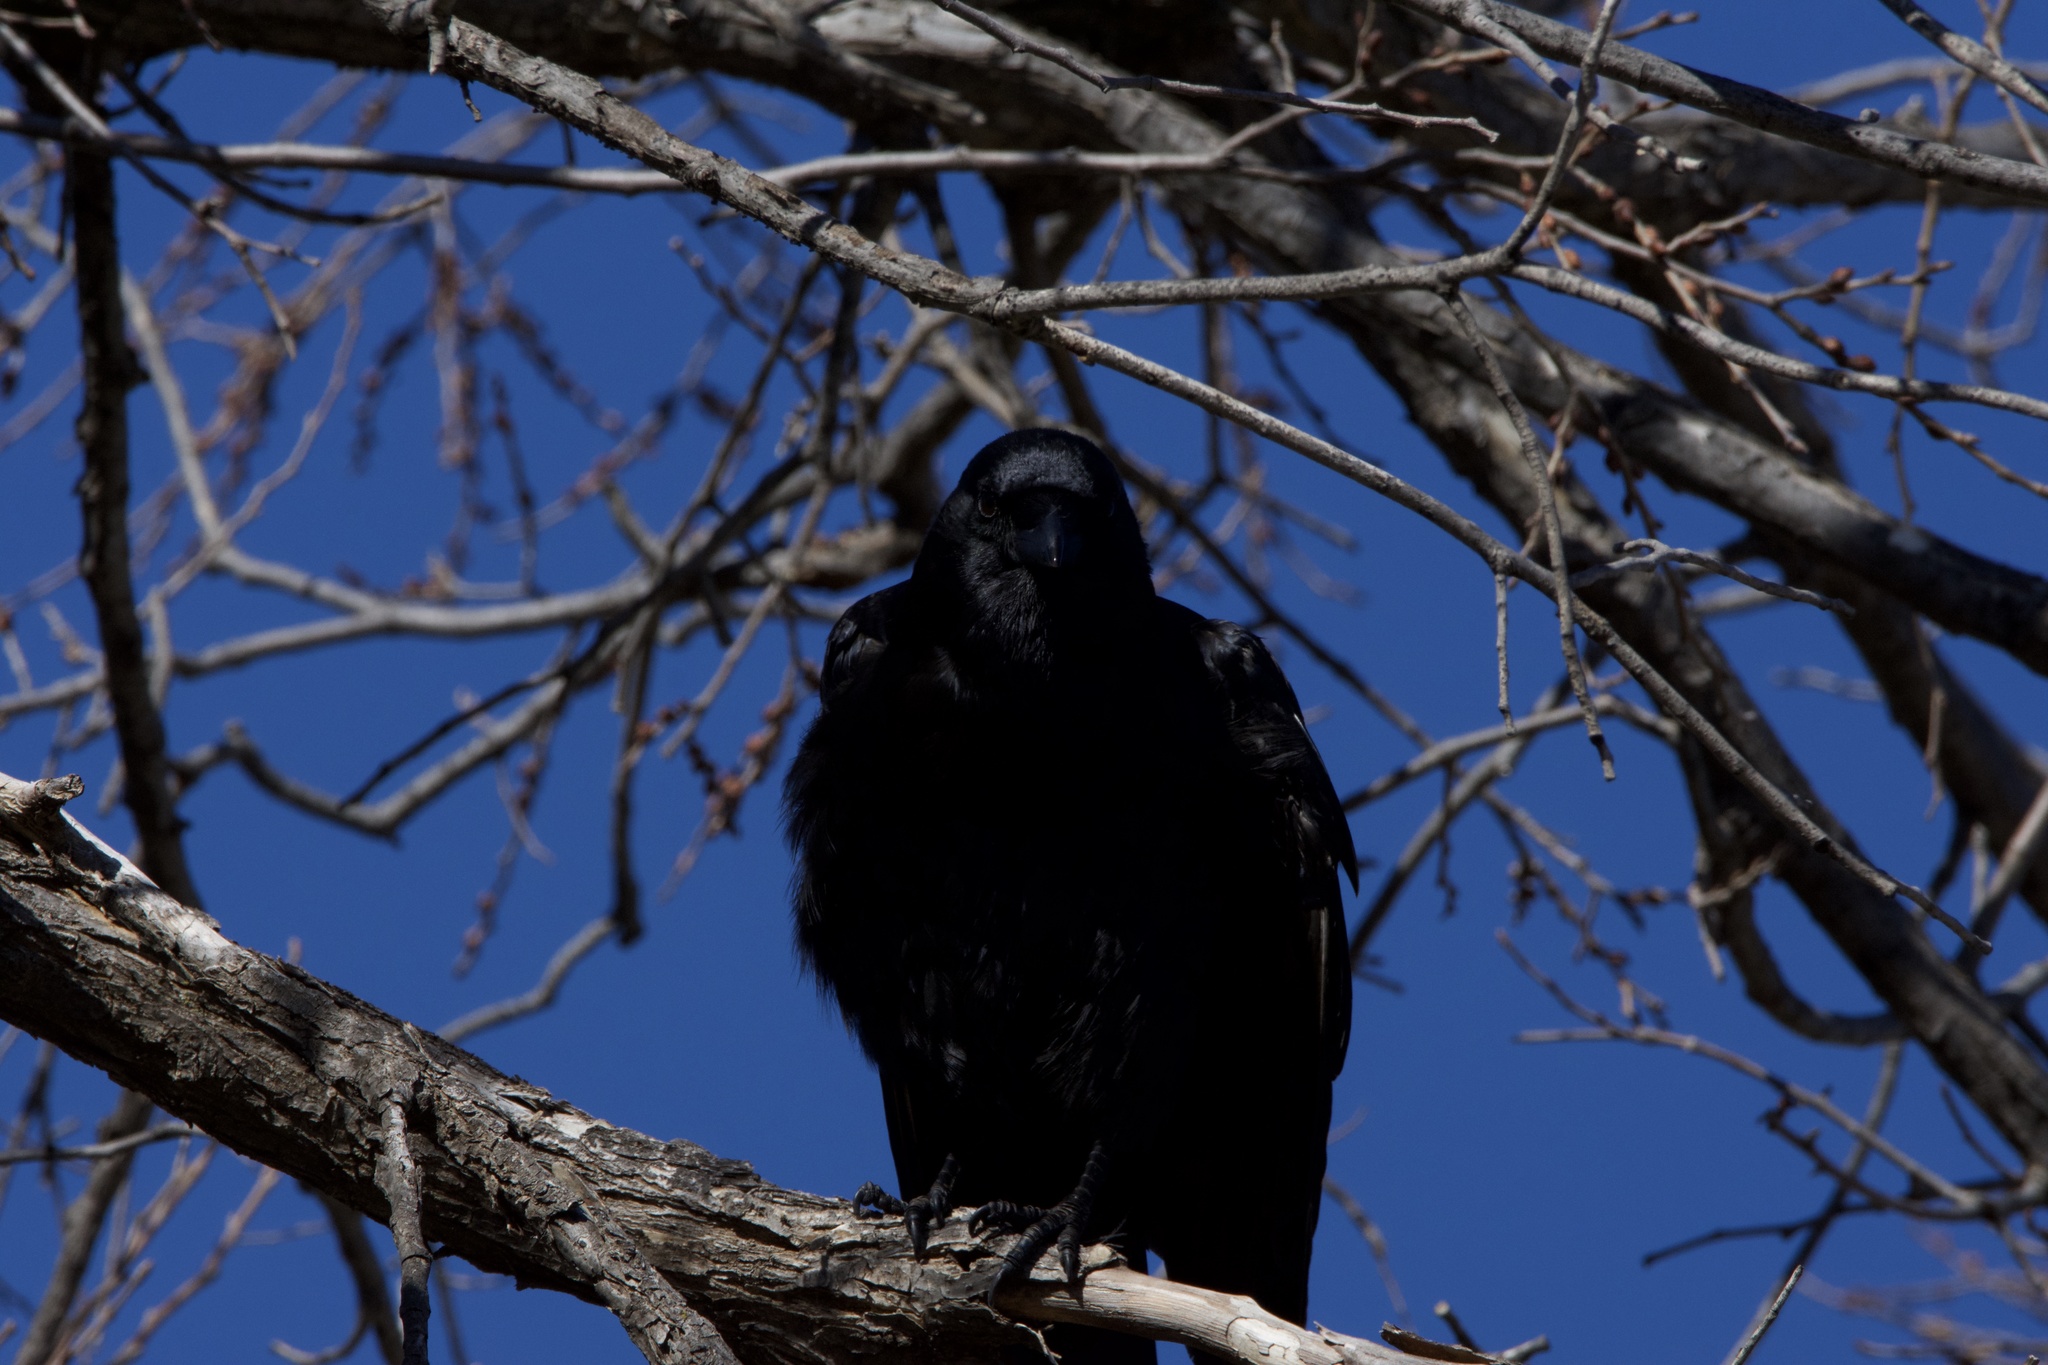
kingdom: Animalia
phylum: Chordata
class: Aves
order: Passeriformes
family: Corvidae
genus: Corvus
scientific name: Corvus brachyrhynchos
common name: American crow
